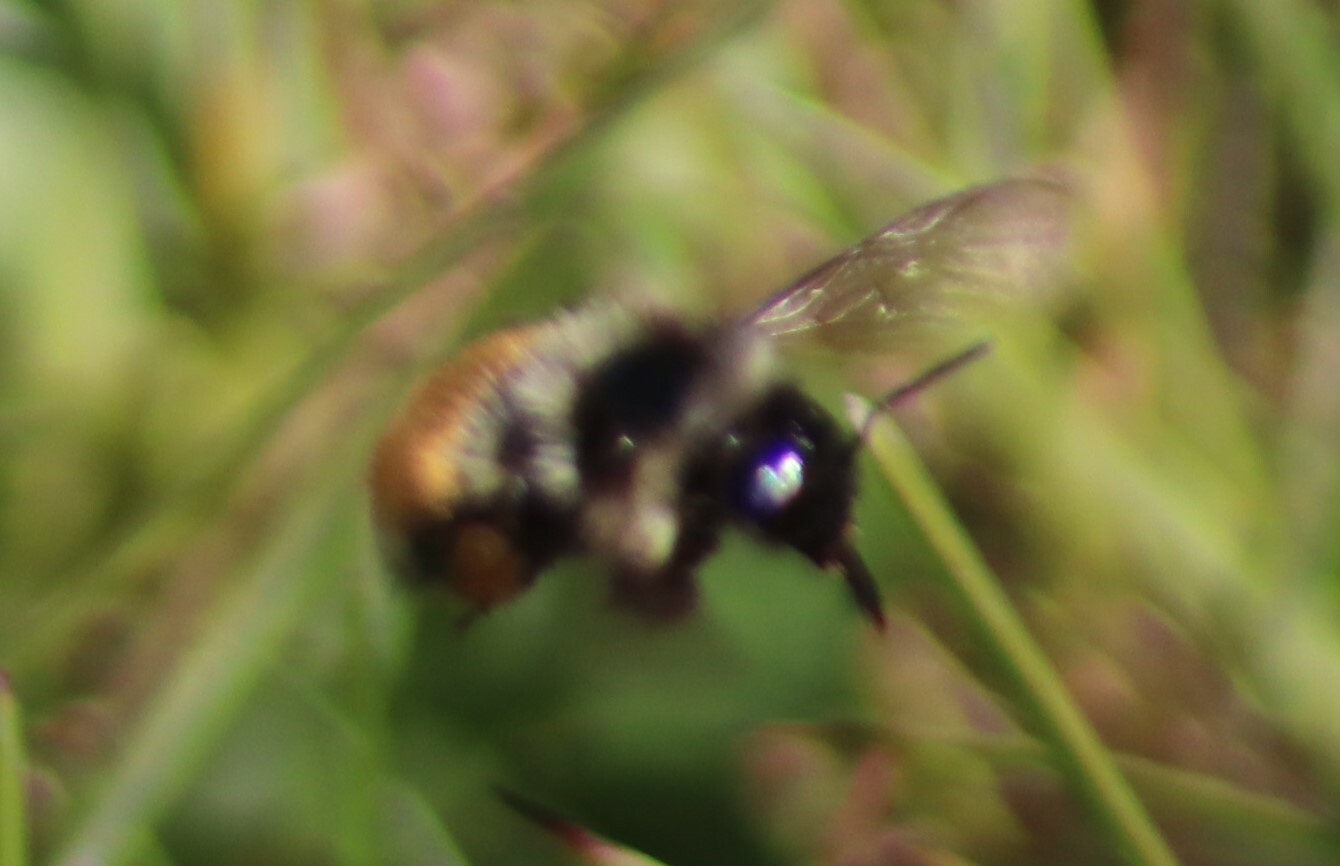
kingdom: Animalia
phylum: Arthropoda
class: Insecta
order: Hymenoptera
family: Apidae
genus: Bombus
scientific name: Bombus ternarius
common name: Tri-colored bumble bee
